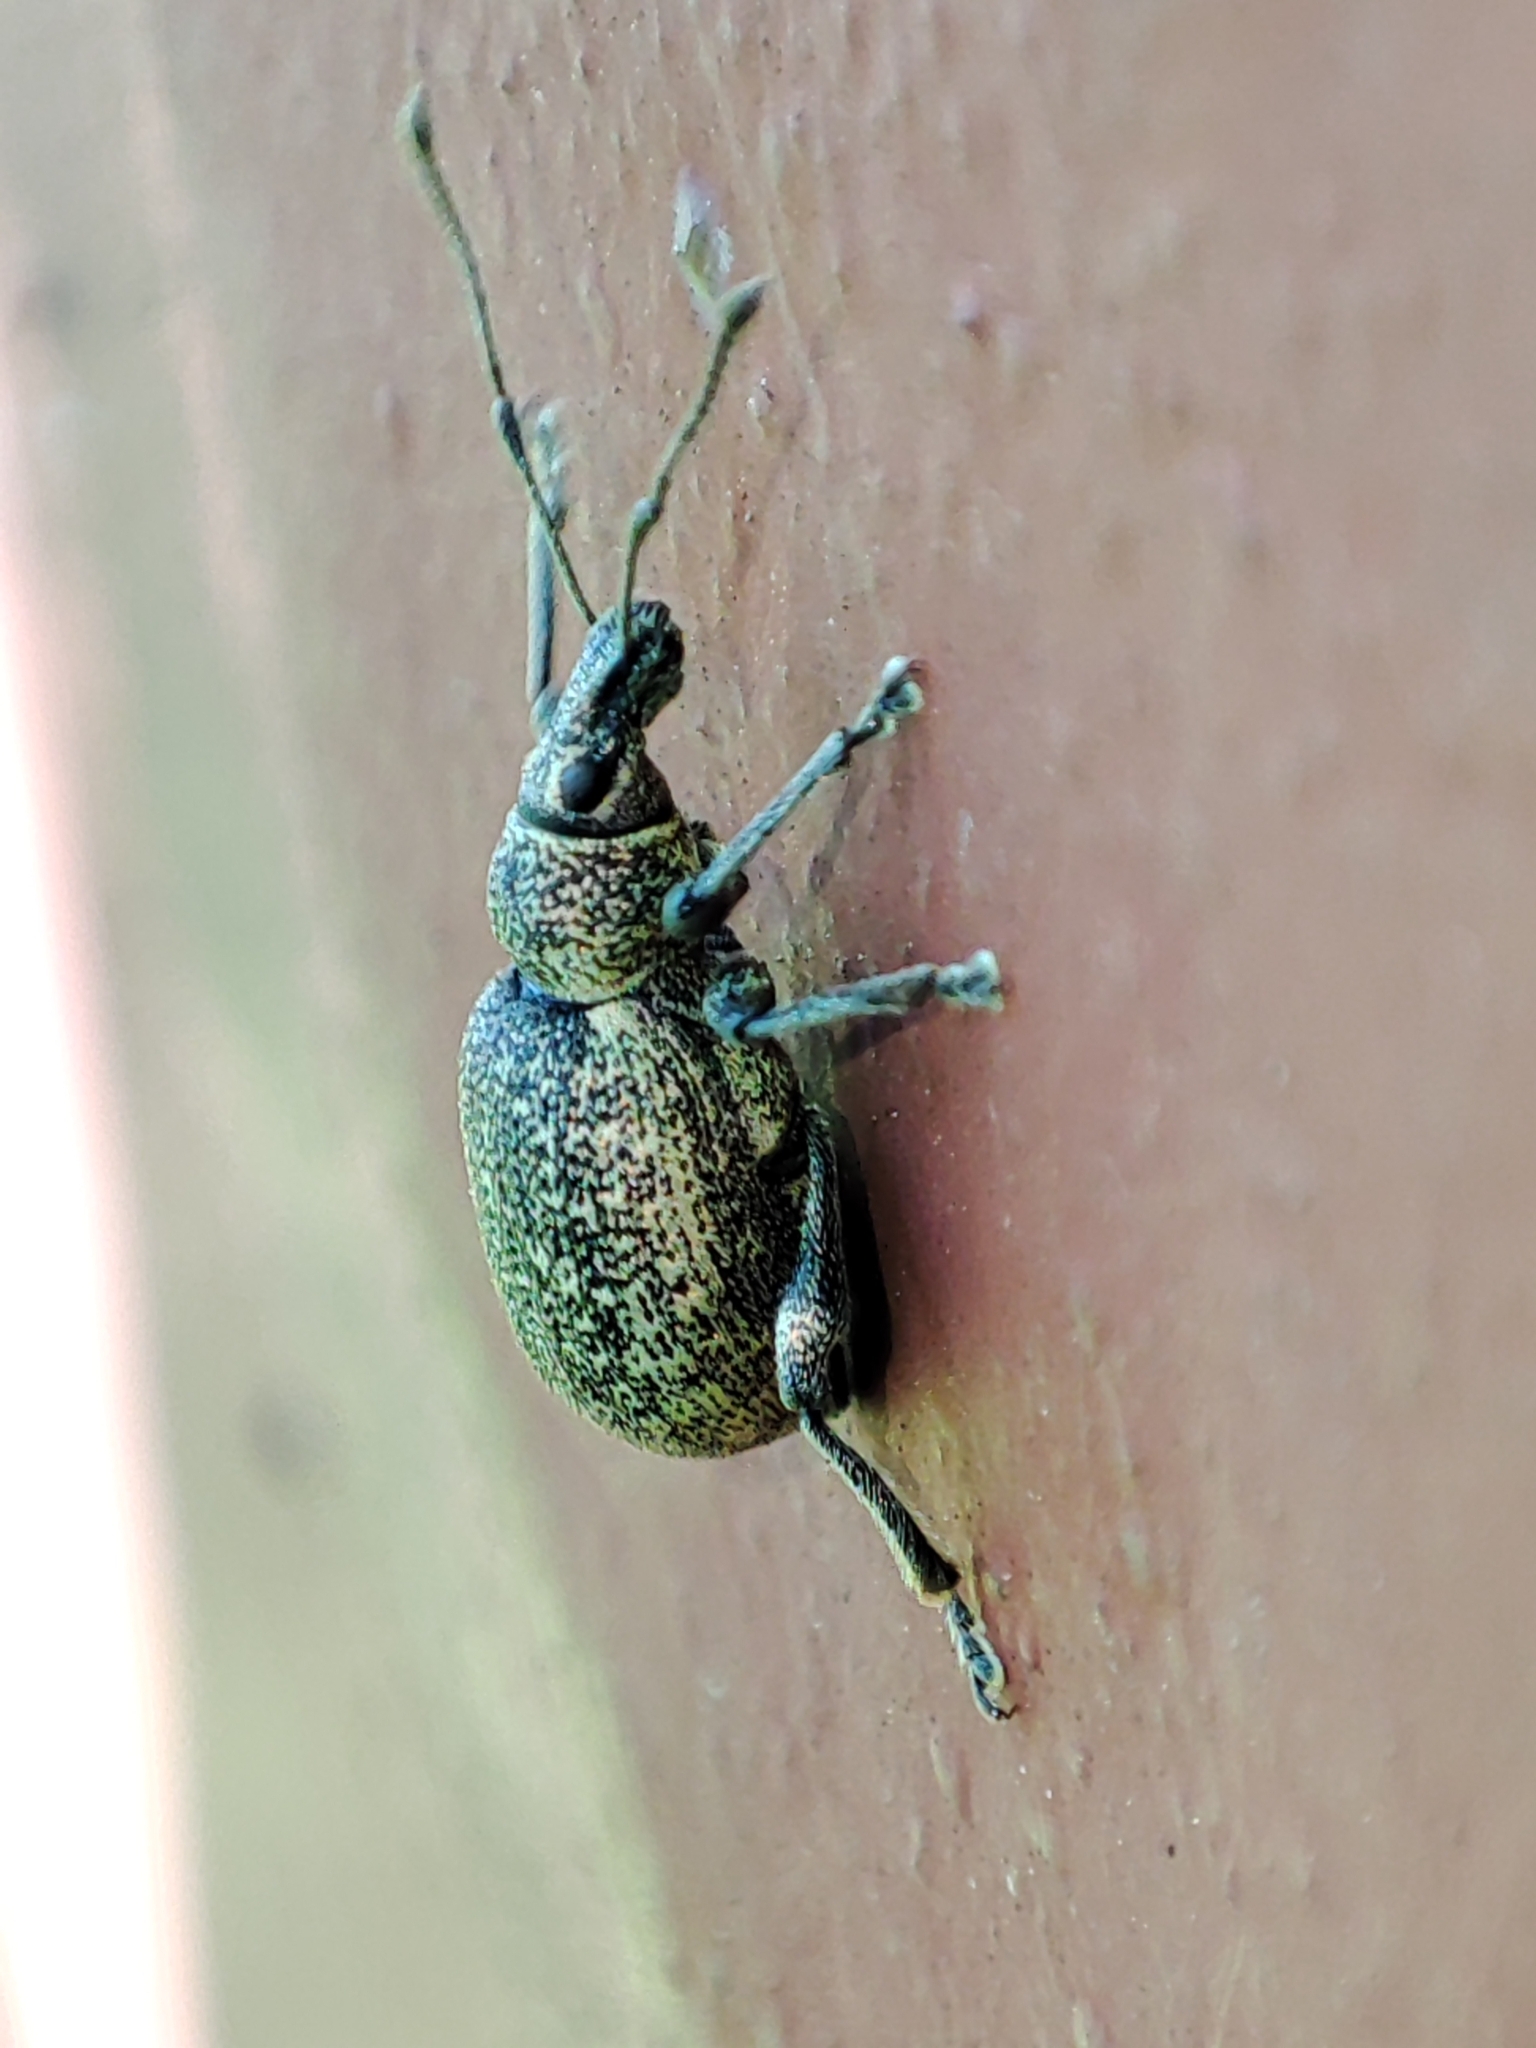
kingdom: Animalia
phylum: Arthropoda
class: Insecta
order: Coleoptera
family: Curculionidae
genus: Otiorhynchus
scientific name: Otiorhynchus aurosparsus
